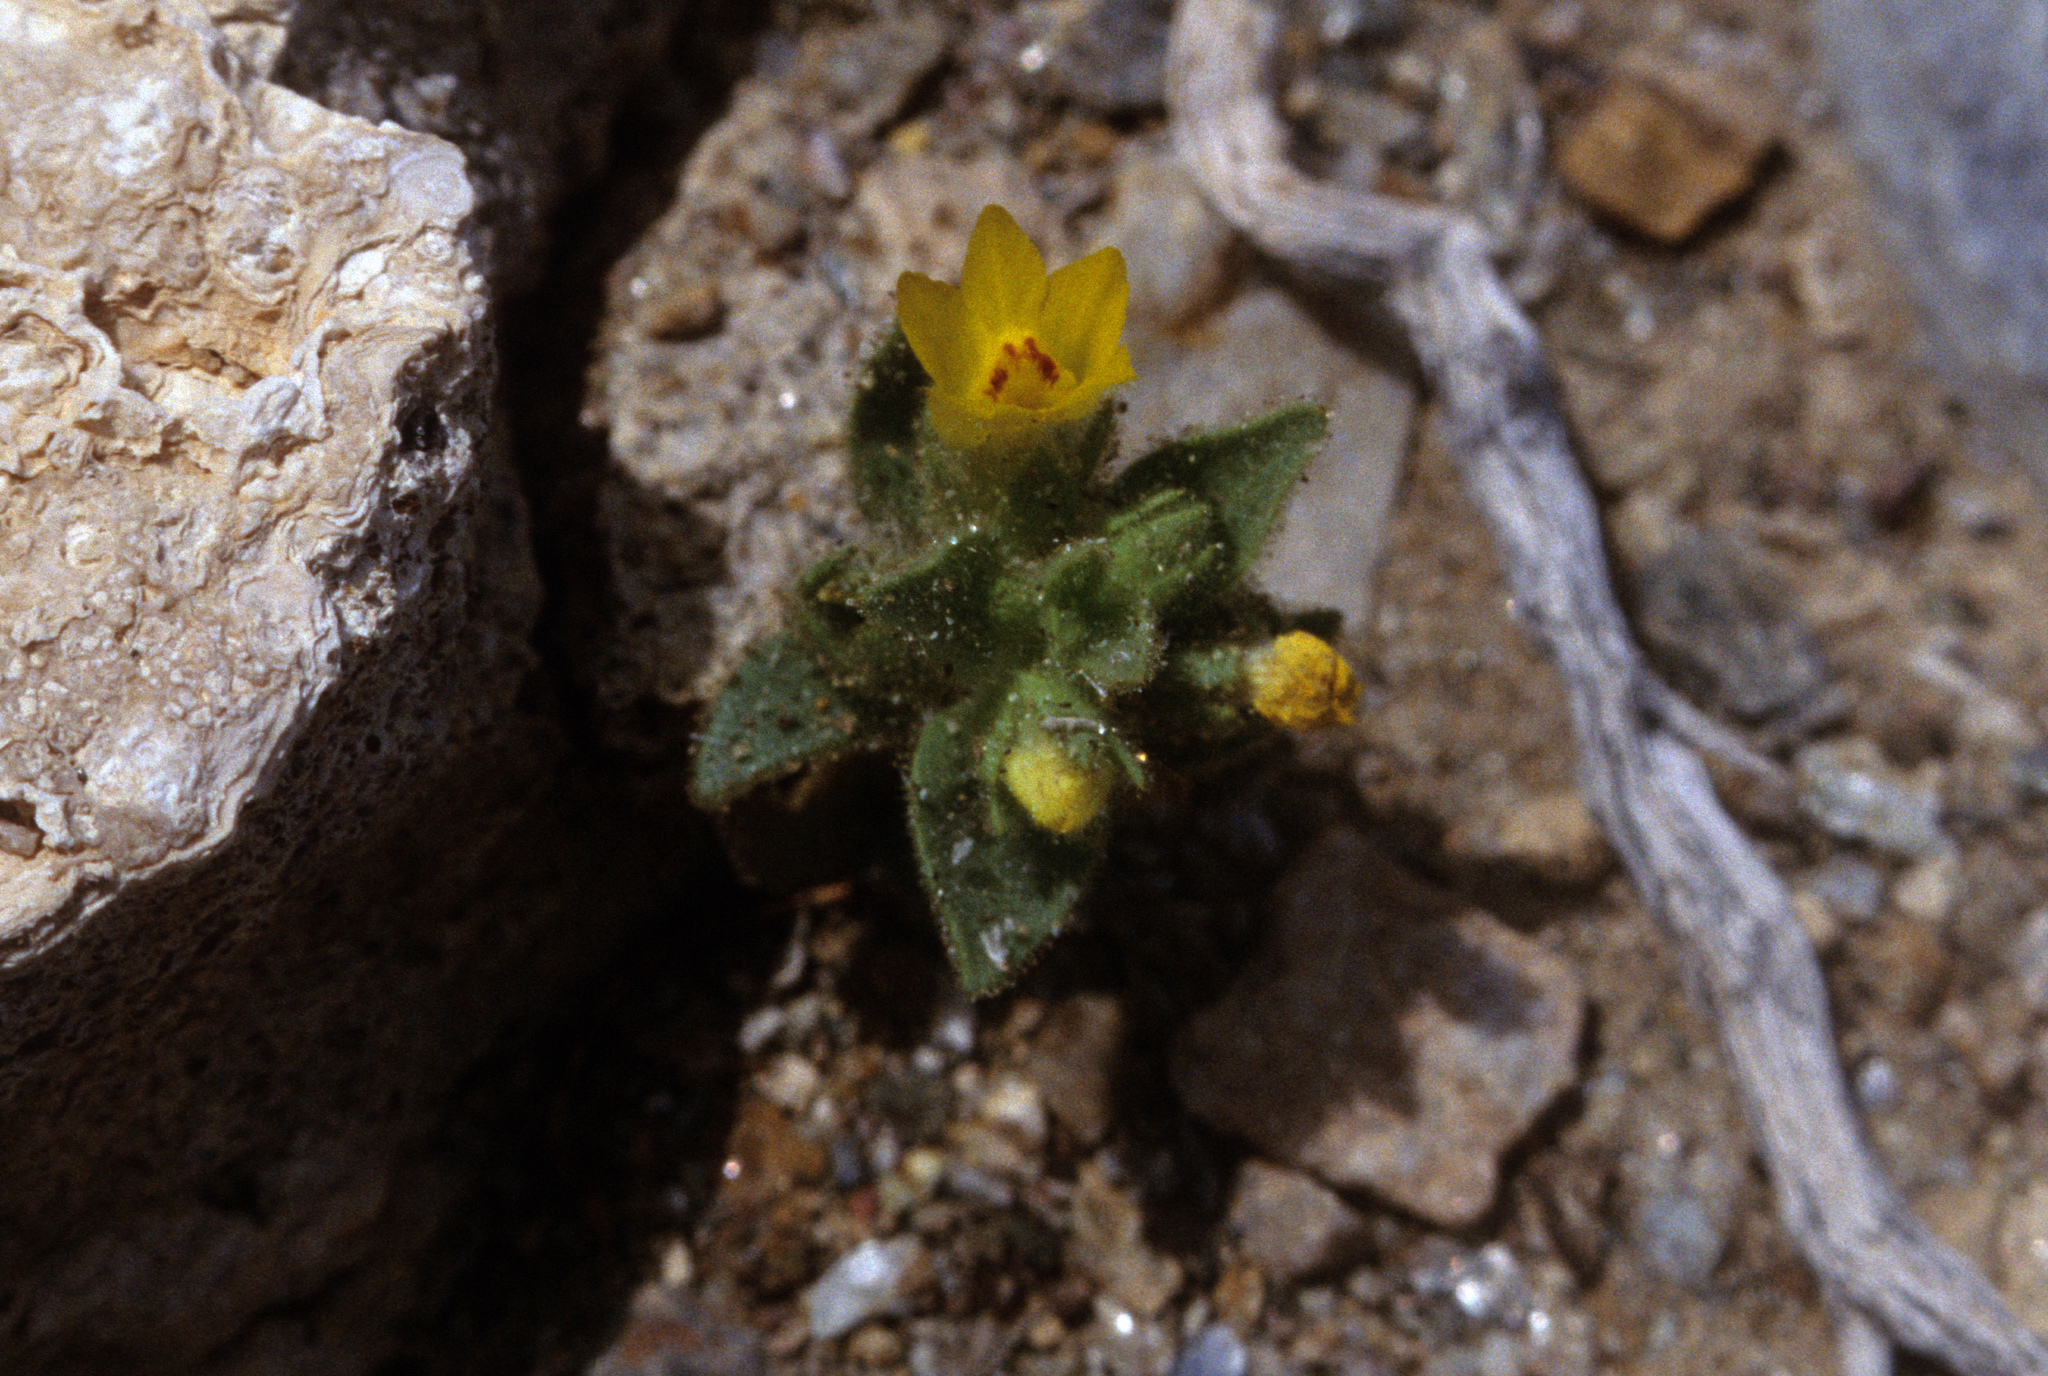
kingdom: Plantae
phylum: Tracheophyta
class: Magnoliopsida
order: Lamiales
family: Plantaginaceae
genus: Mohavea
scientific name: Mohavea breviflora
